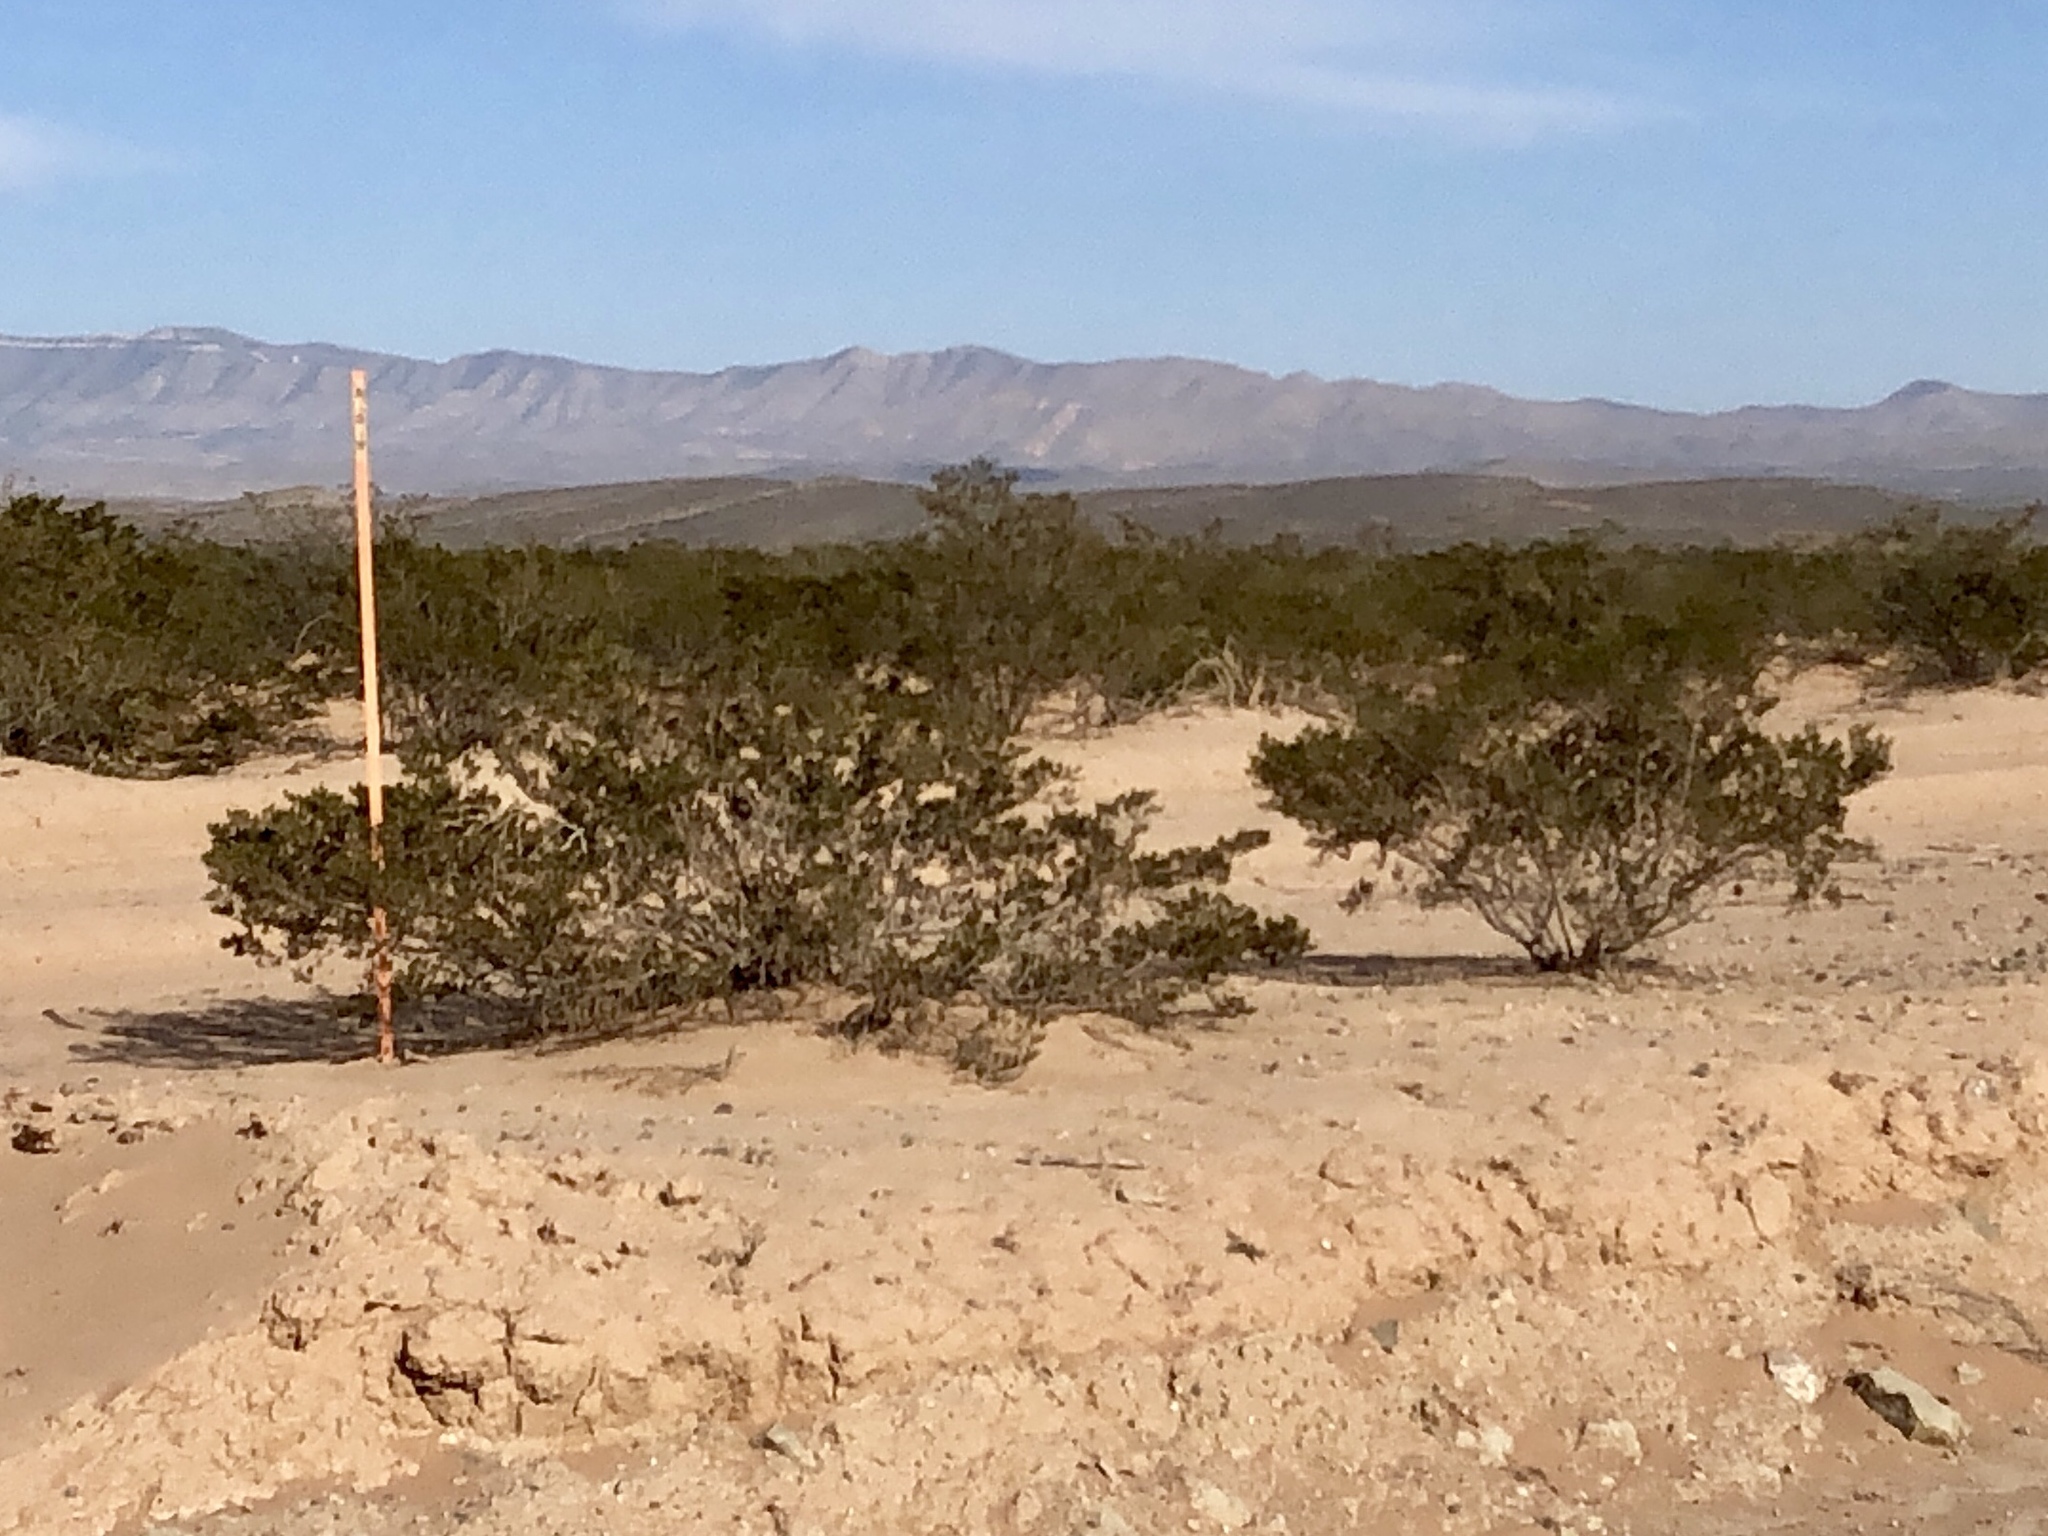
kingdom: Plantae
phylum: Tracheophyta
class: Magnoliopsida
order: Zygophyllales
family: Zygophyllaceae
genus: Larrea
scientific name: Larrea tridentata
